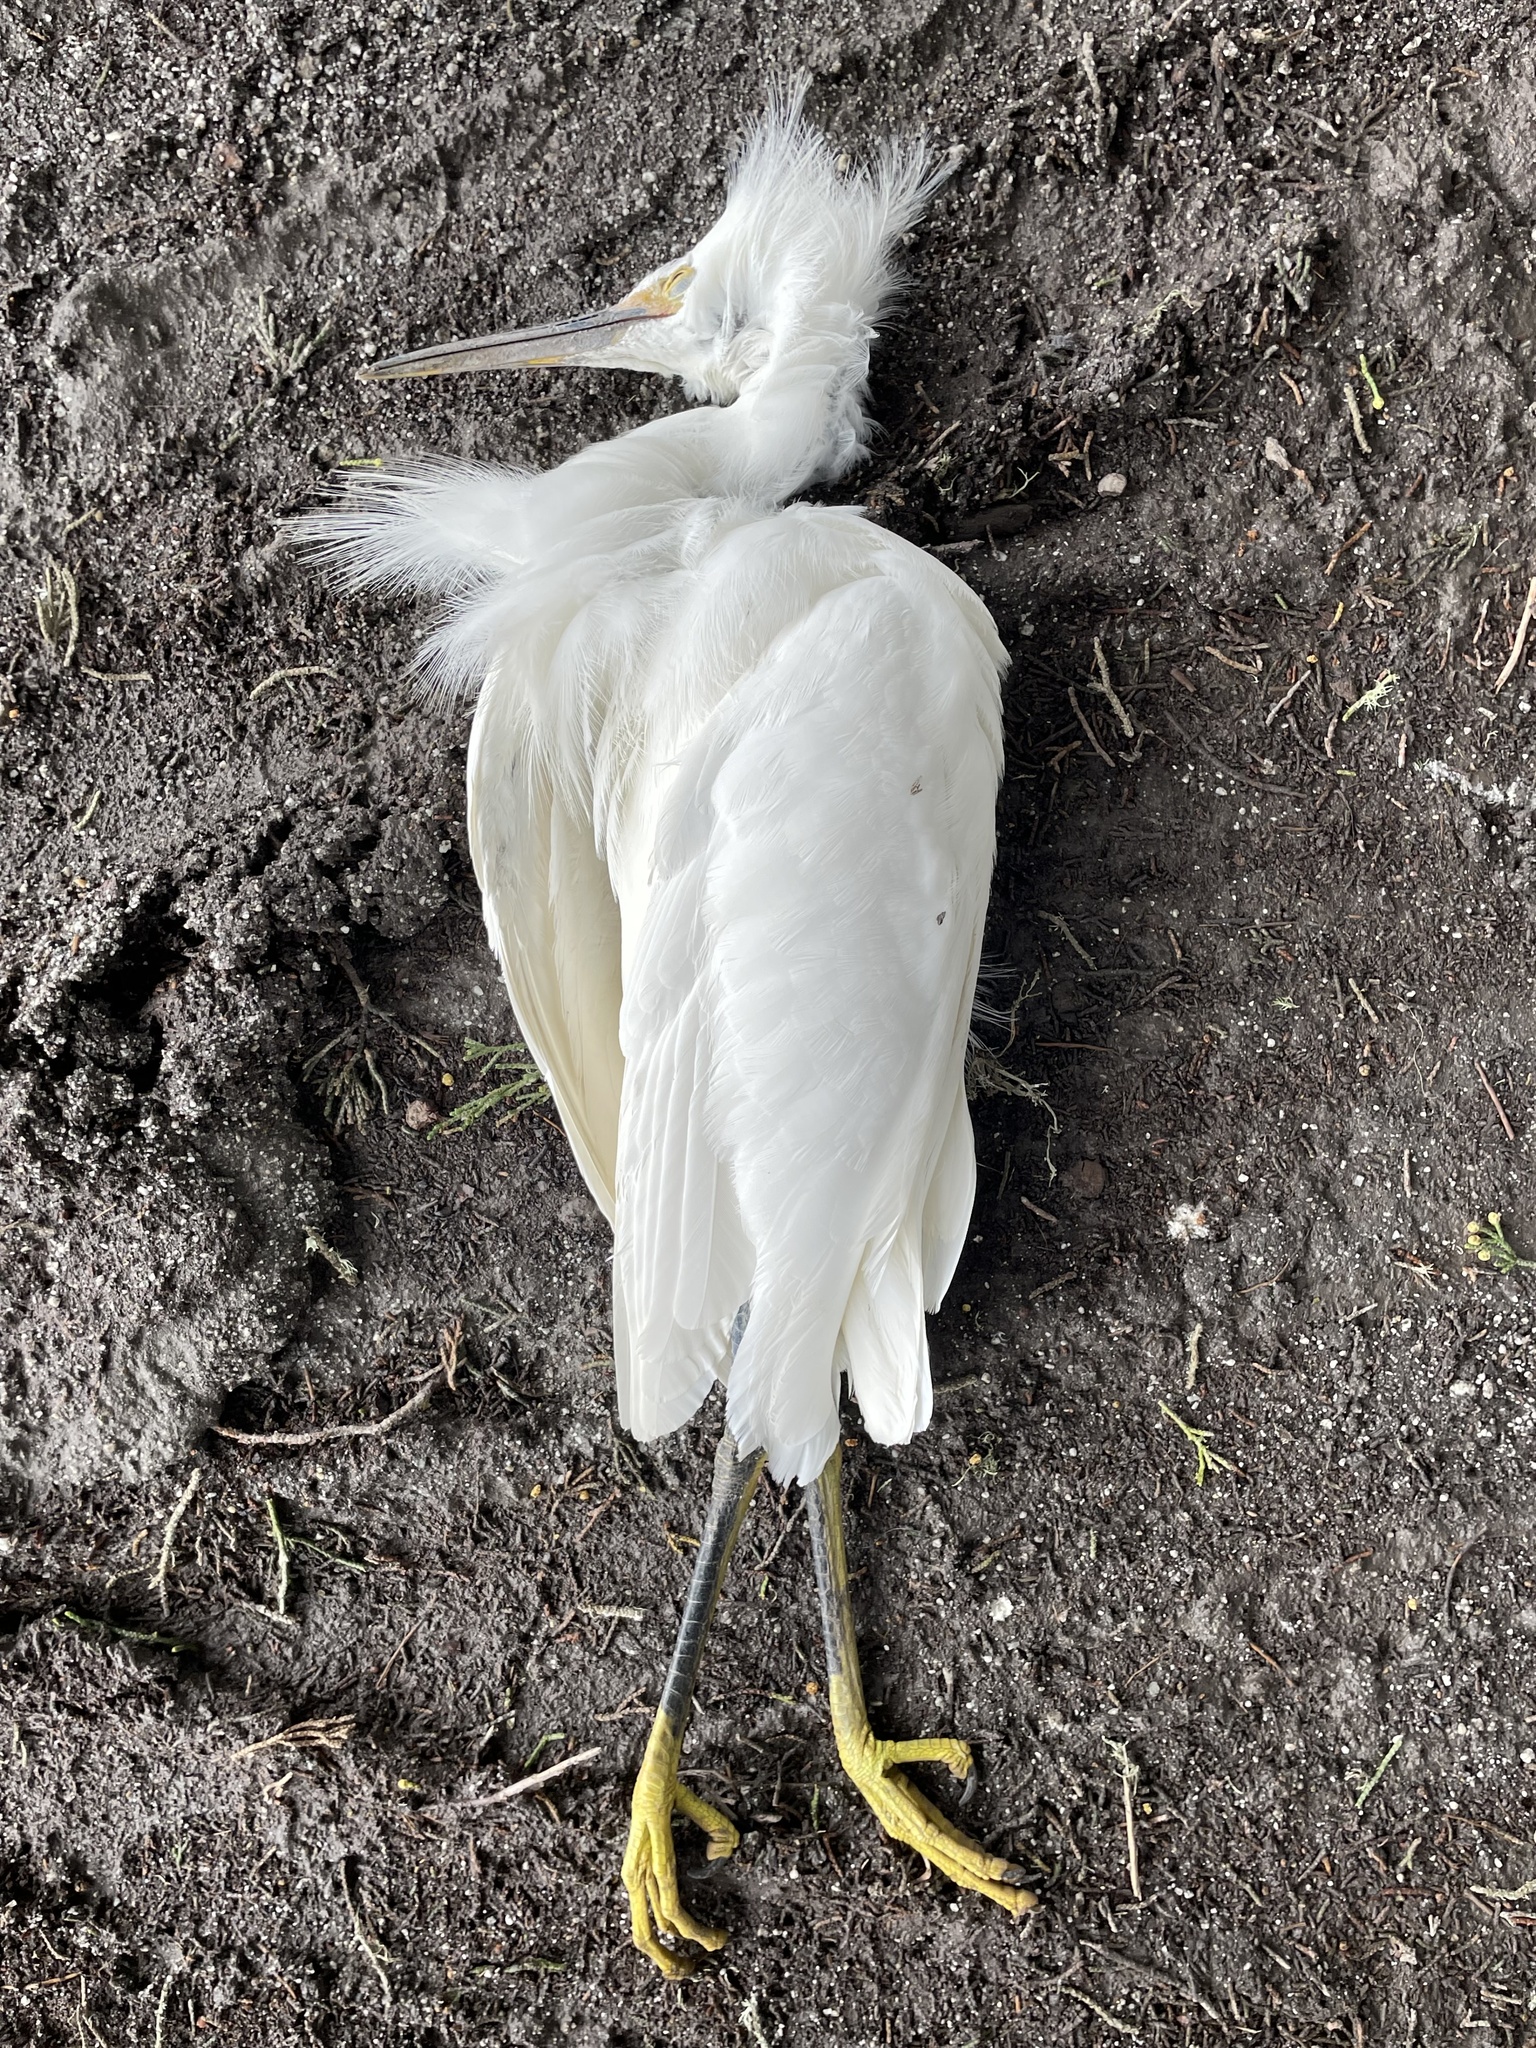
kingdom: Animalia
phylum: Chordata
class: Aves
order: Pelecaniformes
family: Ardeidae
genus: Egretta
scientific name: Egretta thula
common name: Snowy egret
